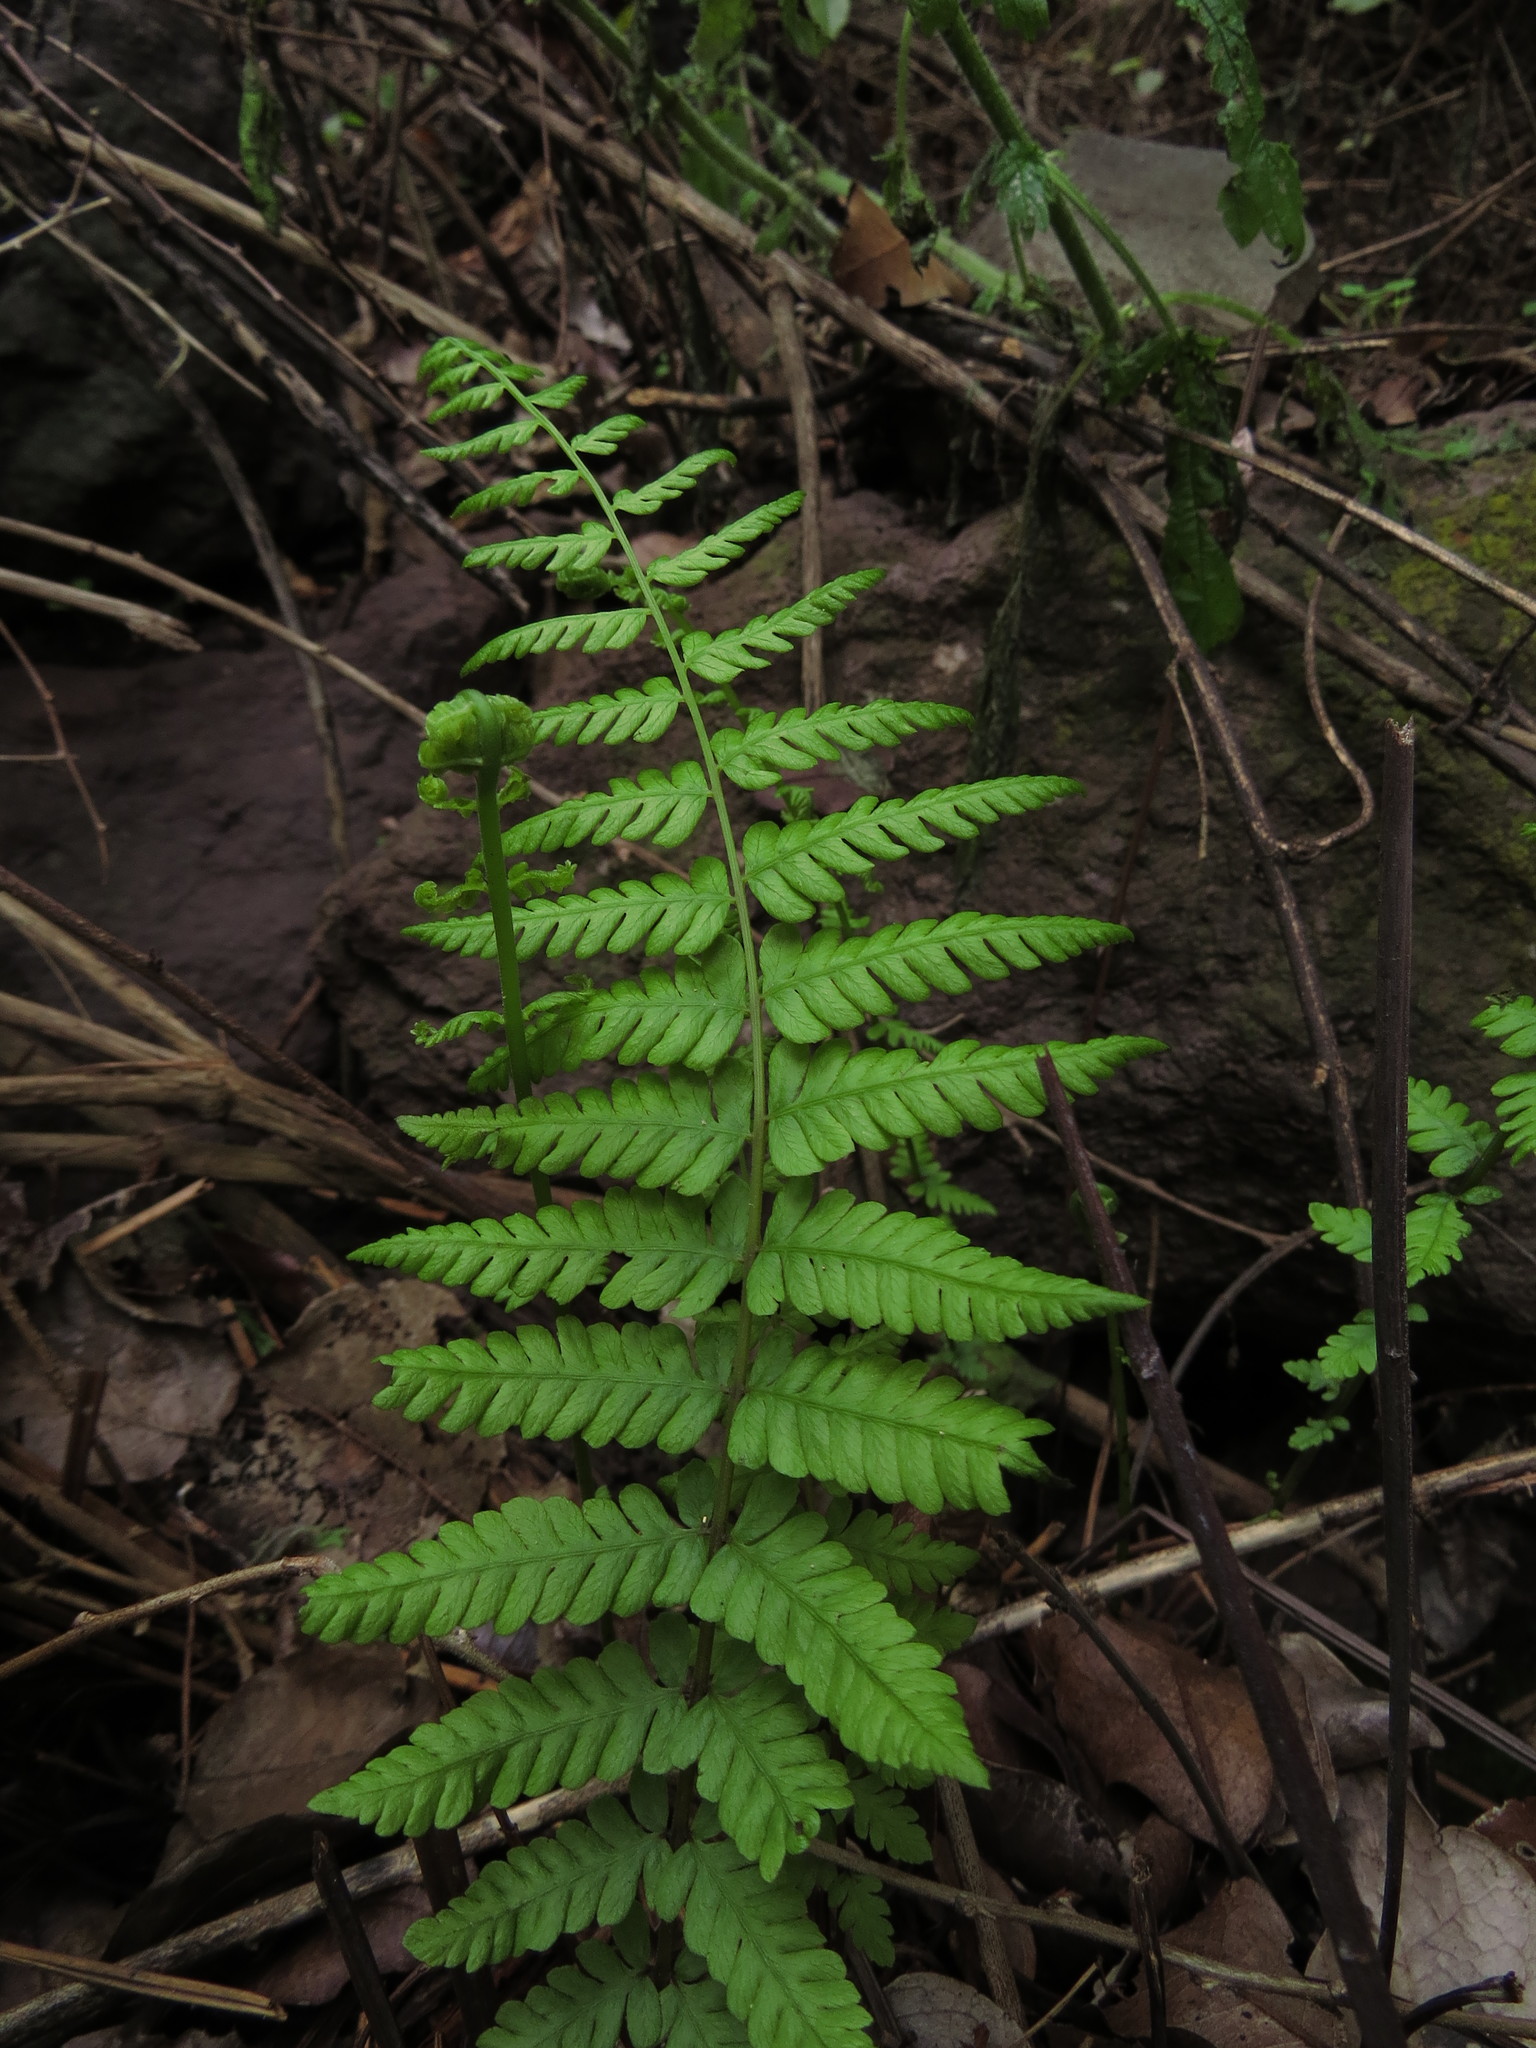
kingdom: Plantae
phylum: Tracheophyta
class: Polypodiopsida
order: Polypodiales
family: Thelypteridaceae
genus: Amauropelta
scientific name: Amauropelta argentina
